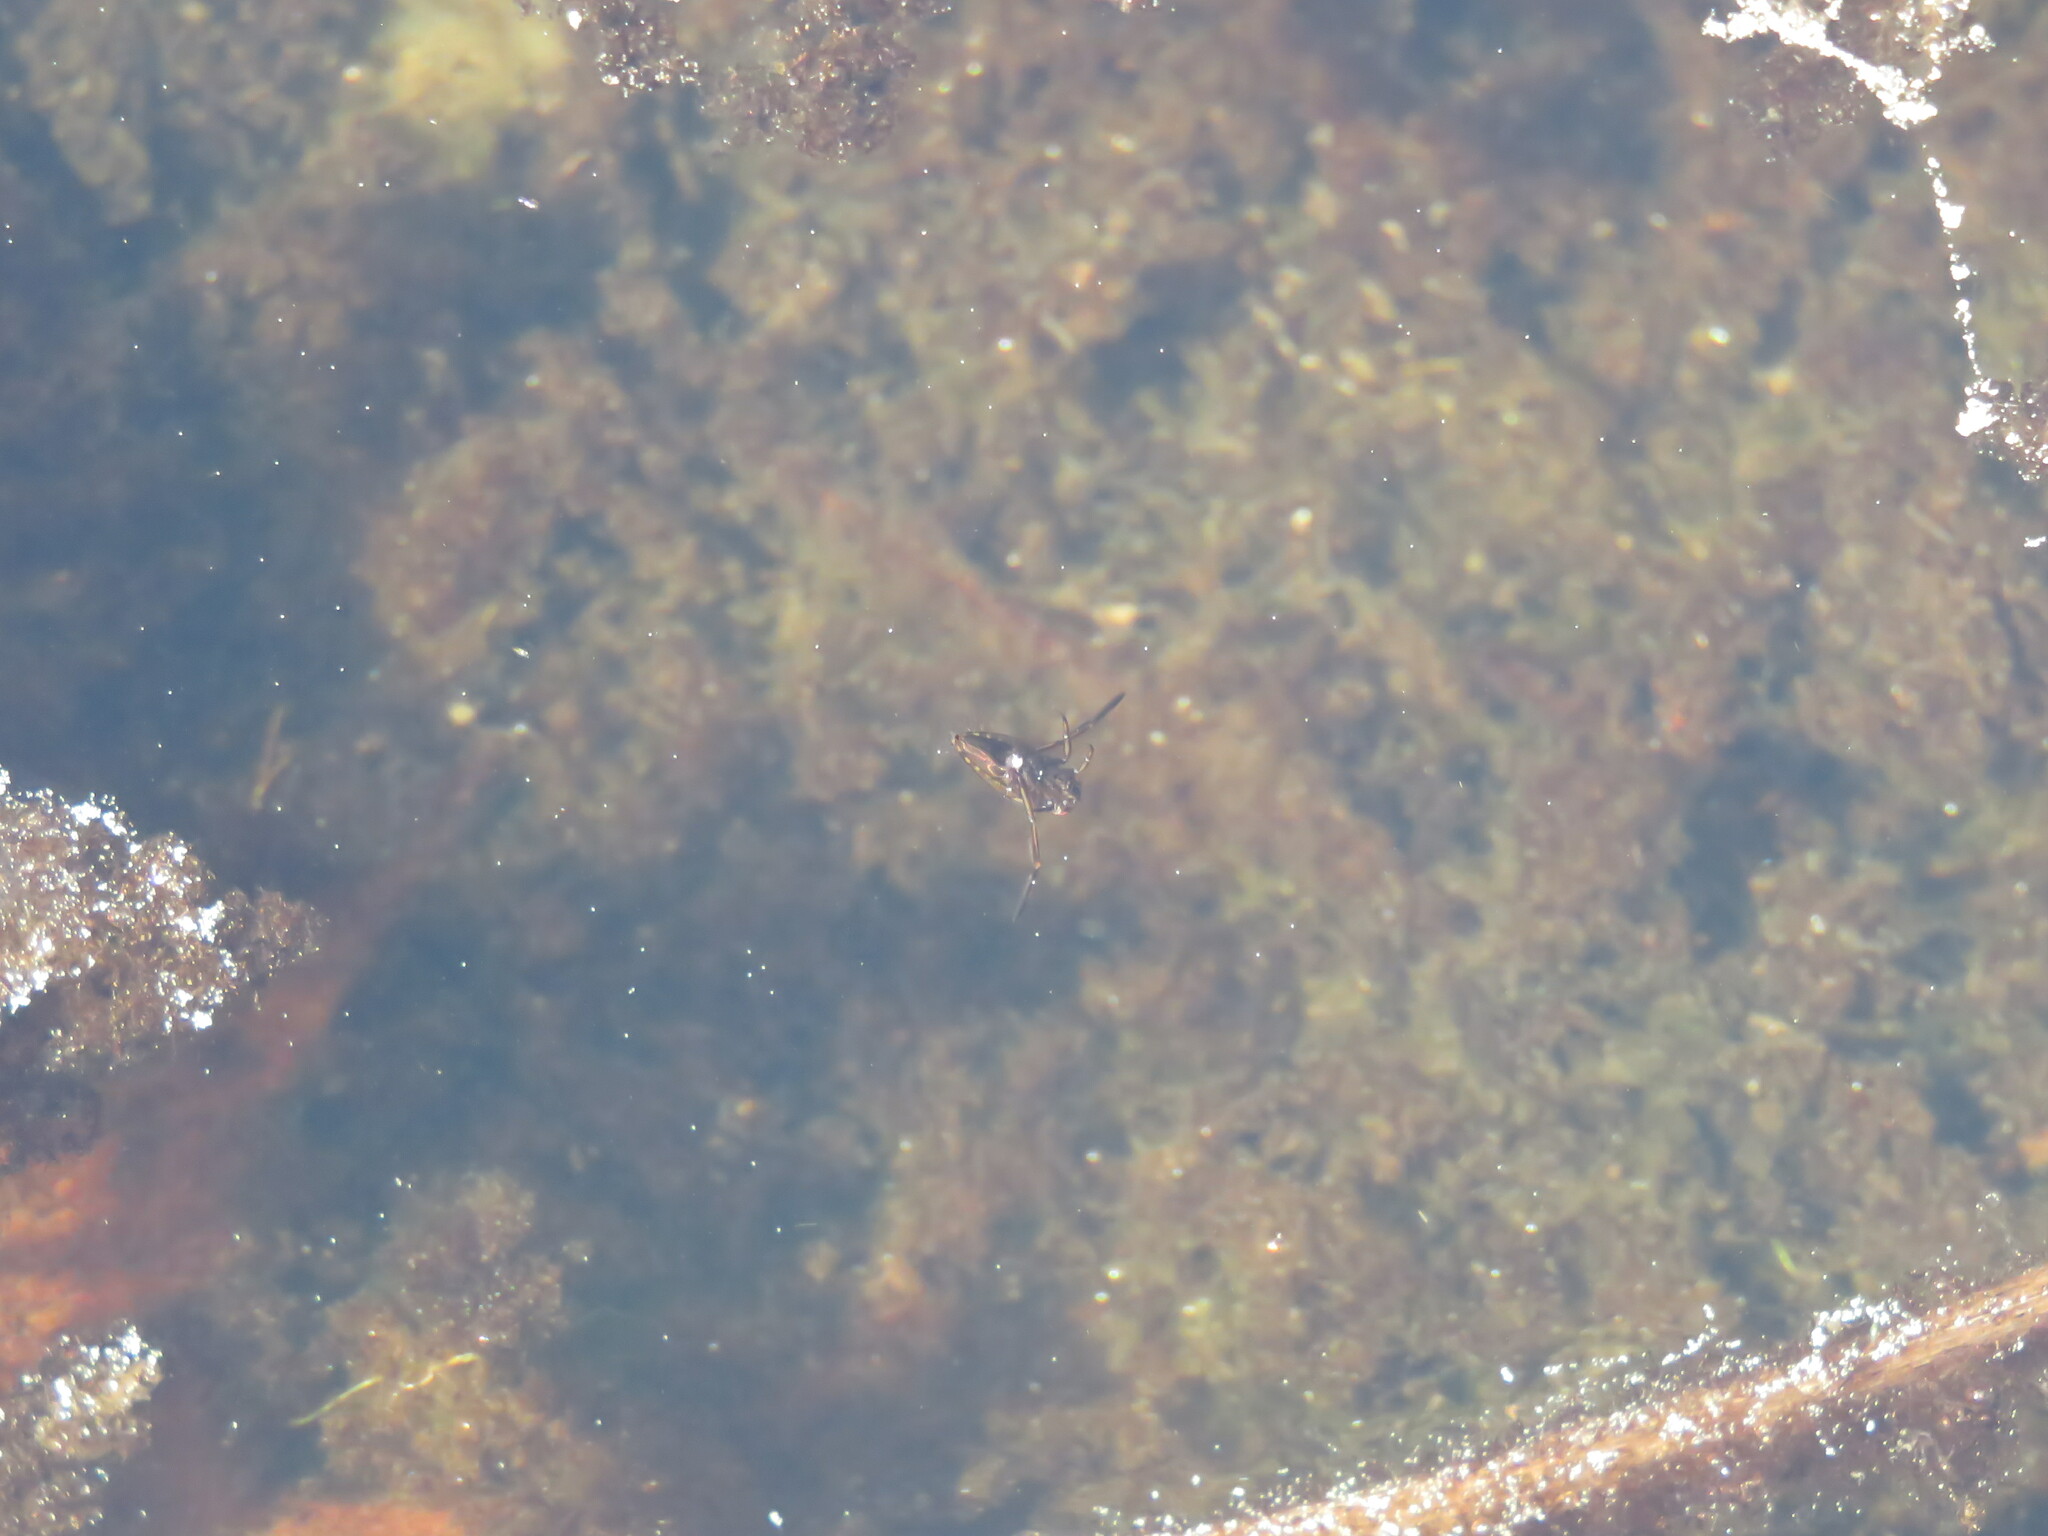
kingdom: Animalia
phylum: Arthropoda
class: Insecta
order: Hemiptera
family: Notonectidae
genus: Notonecta
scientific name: Notonecta
